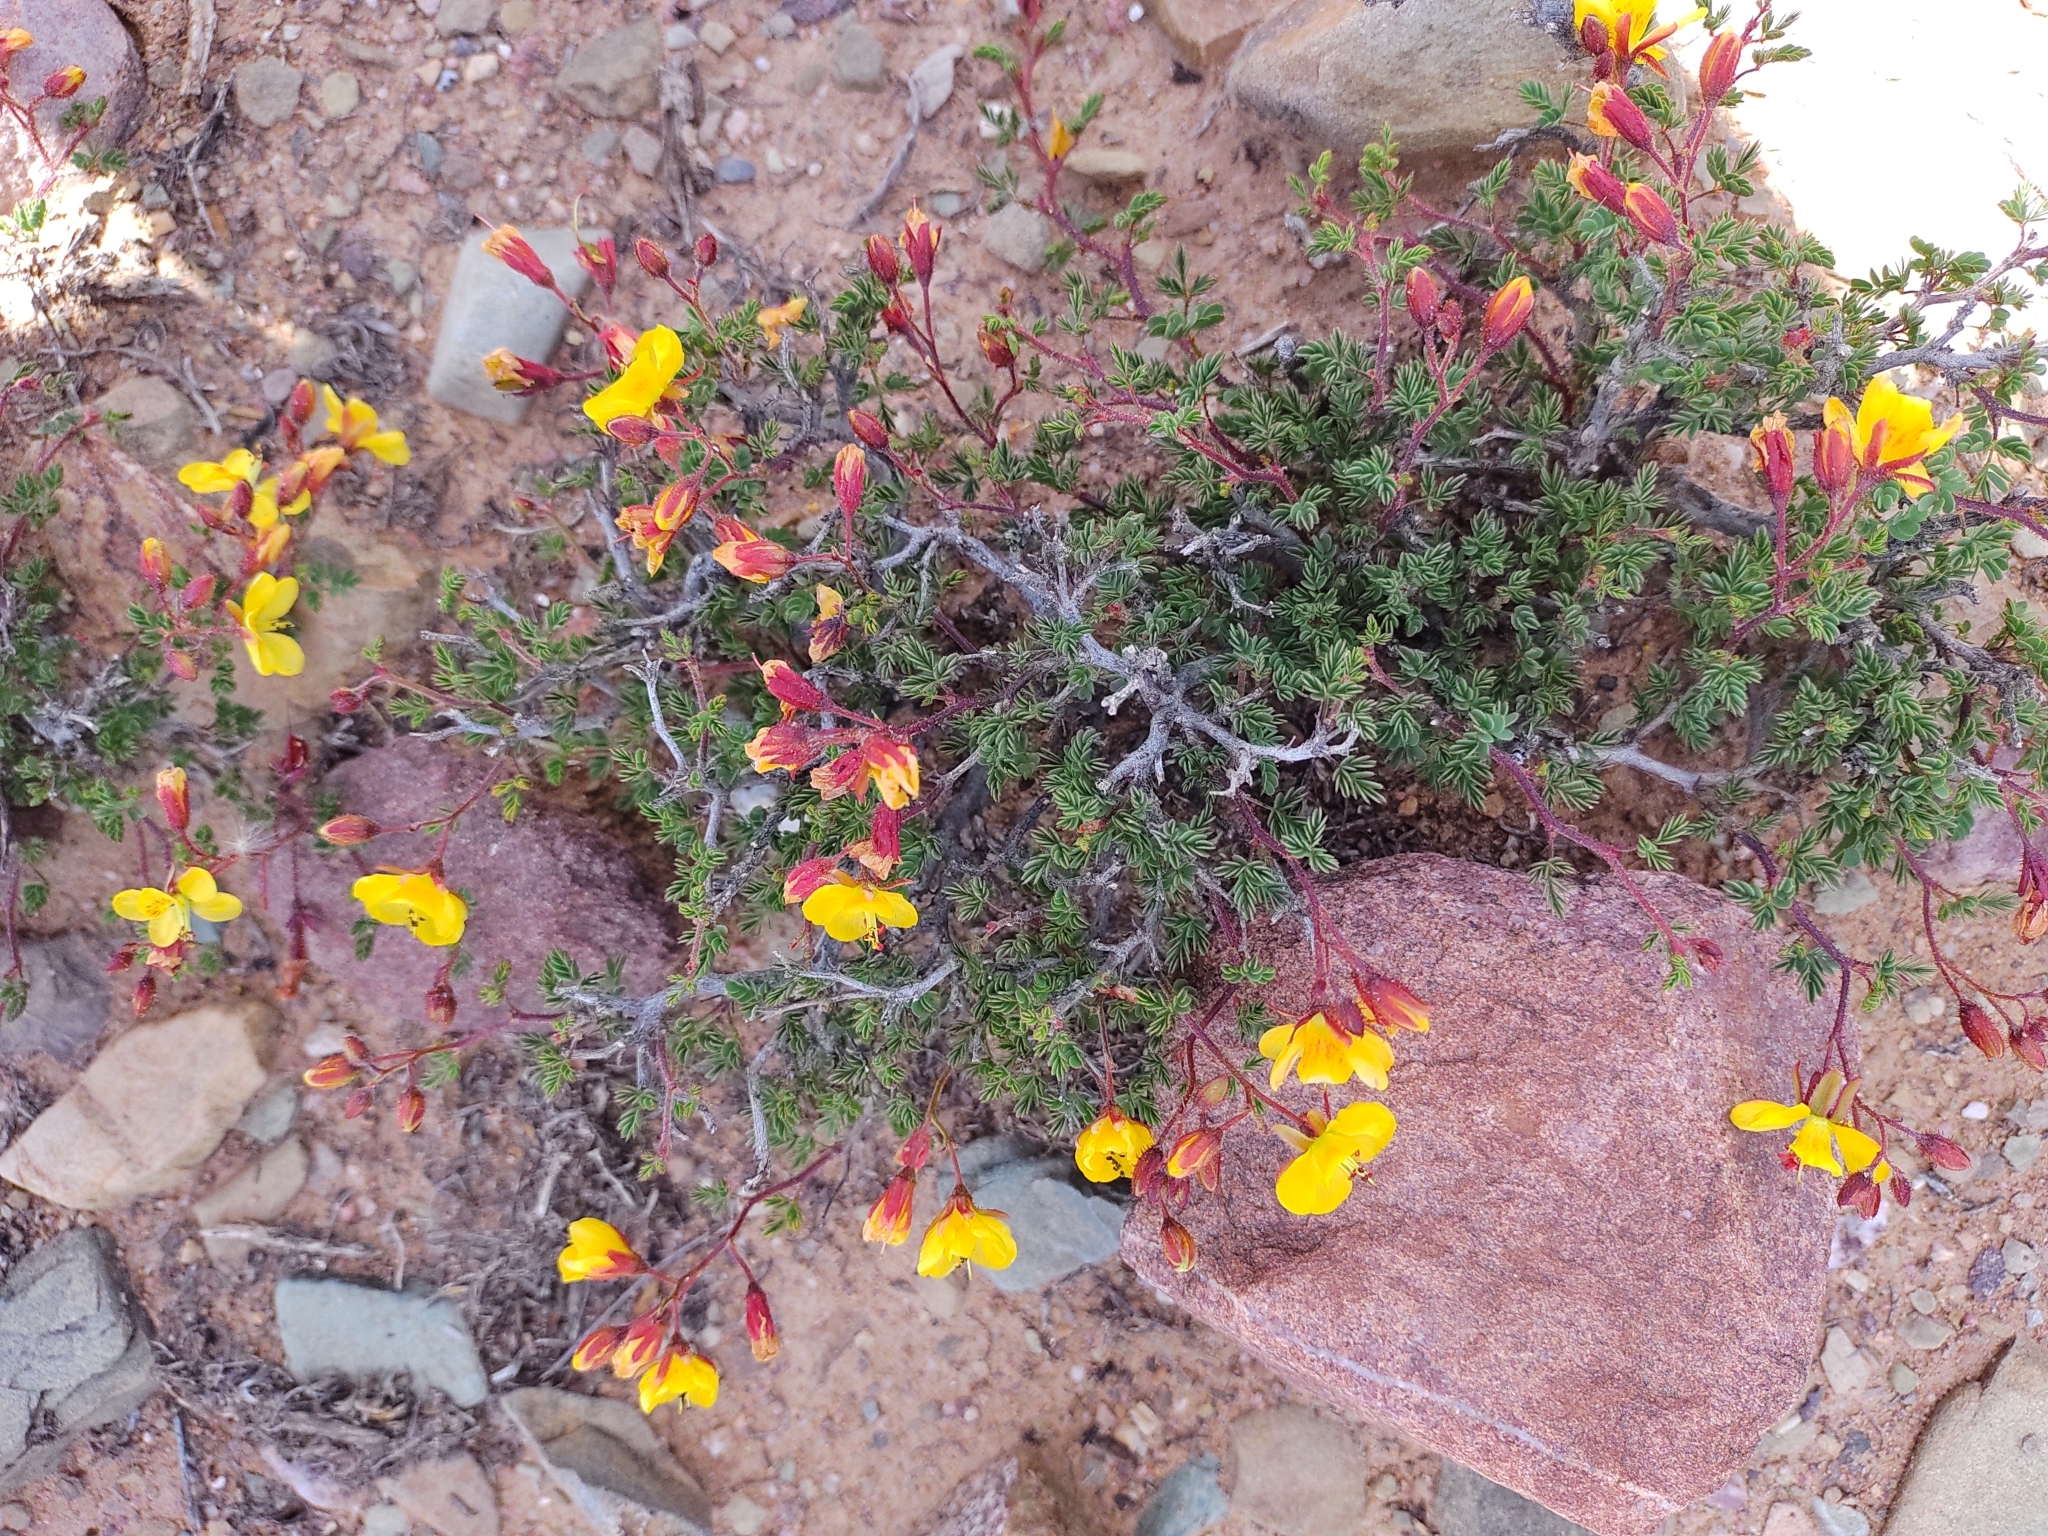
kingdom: Plantae
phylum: Tracheophyta
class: Magnoliopsida
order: Fabales
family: Fabaceae
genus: Arquita
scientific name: Arquita trichocarpa
